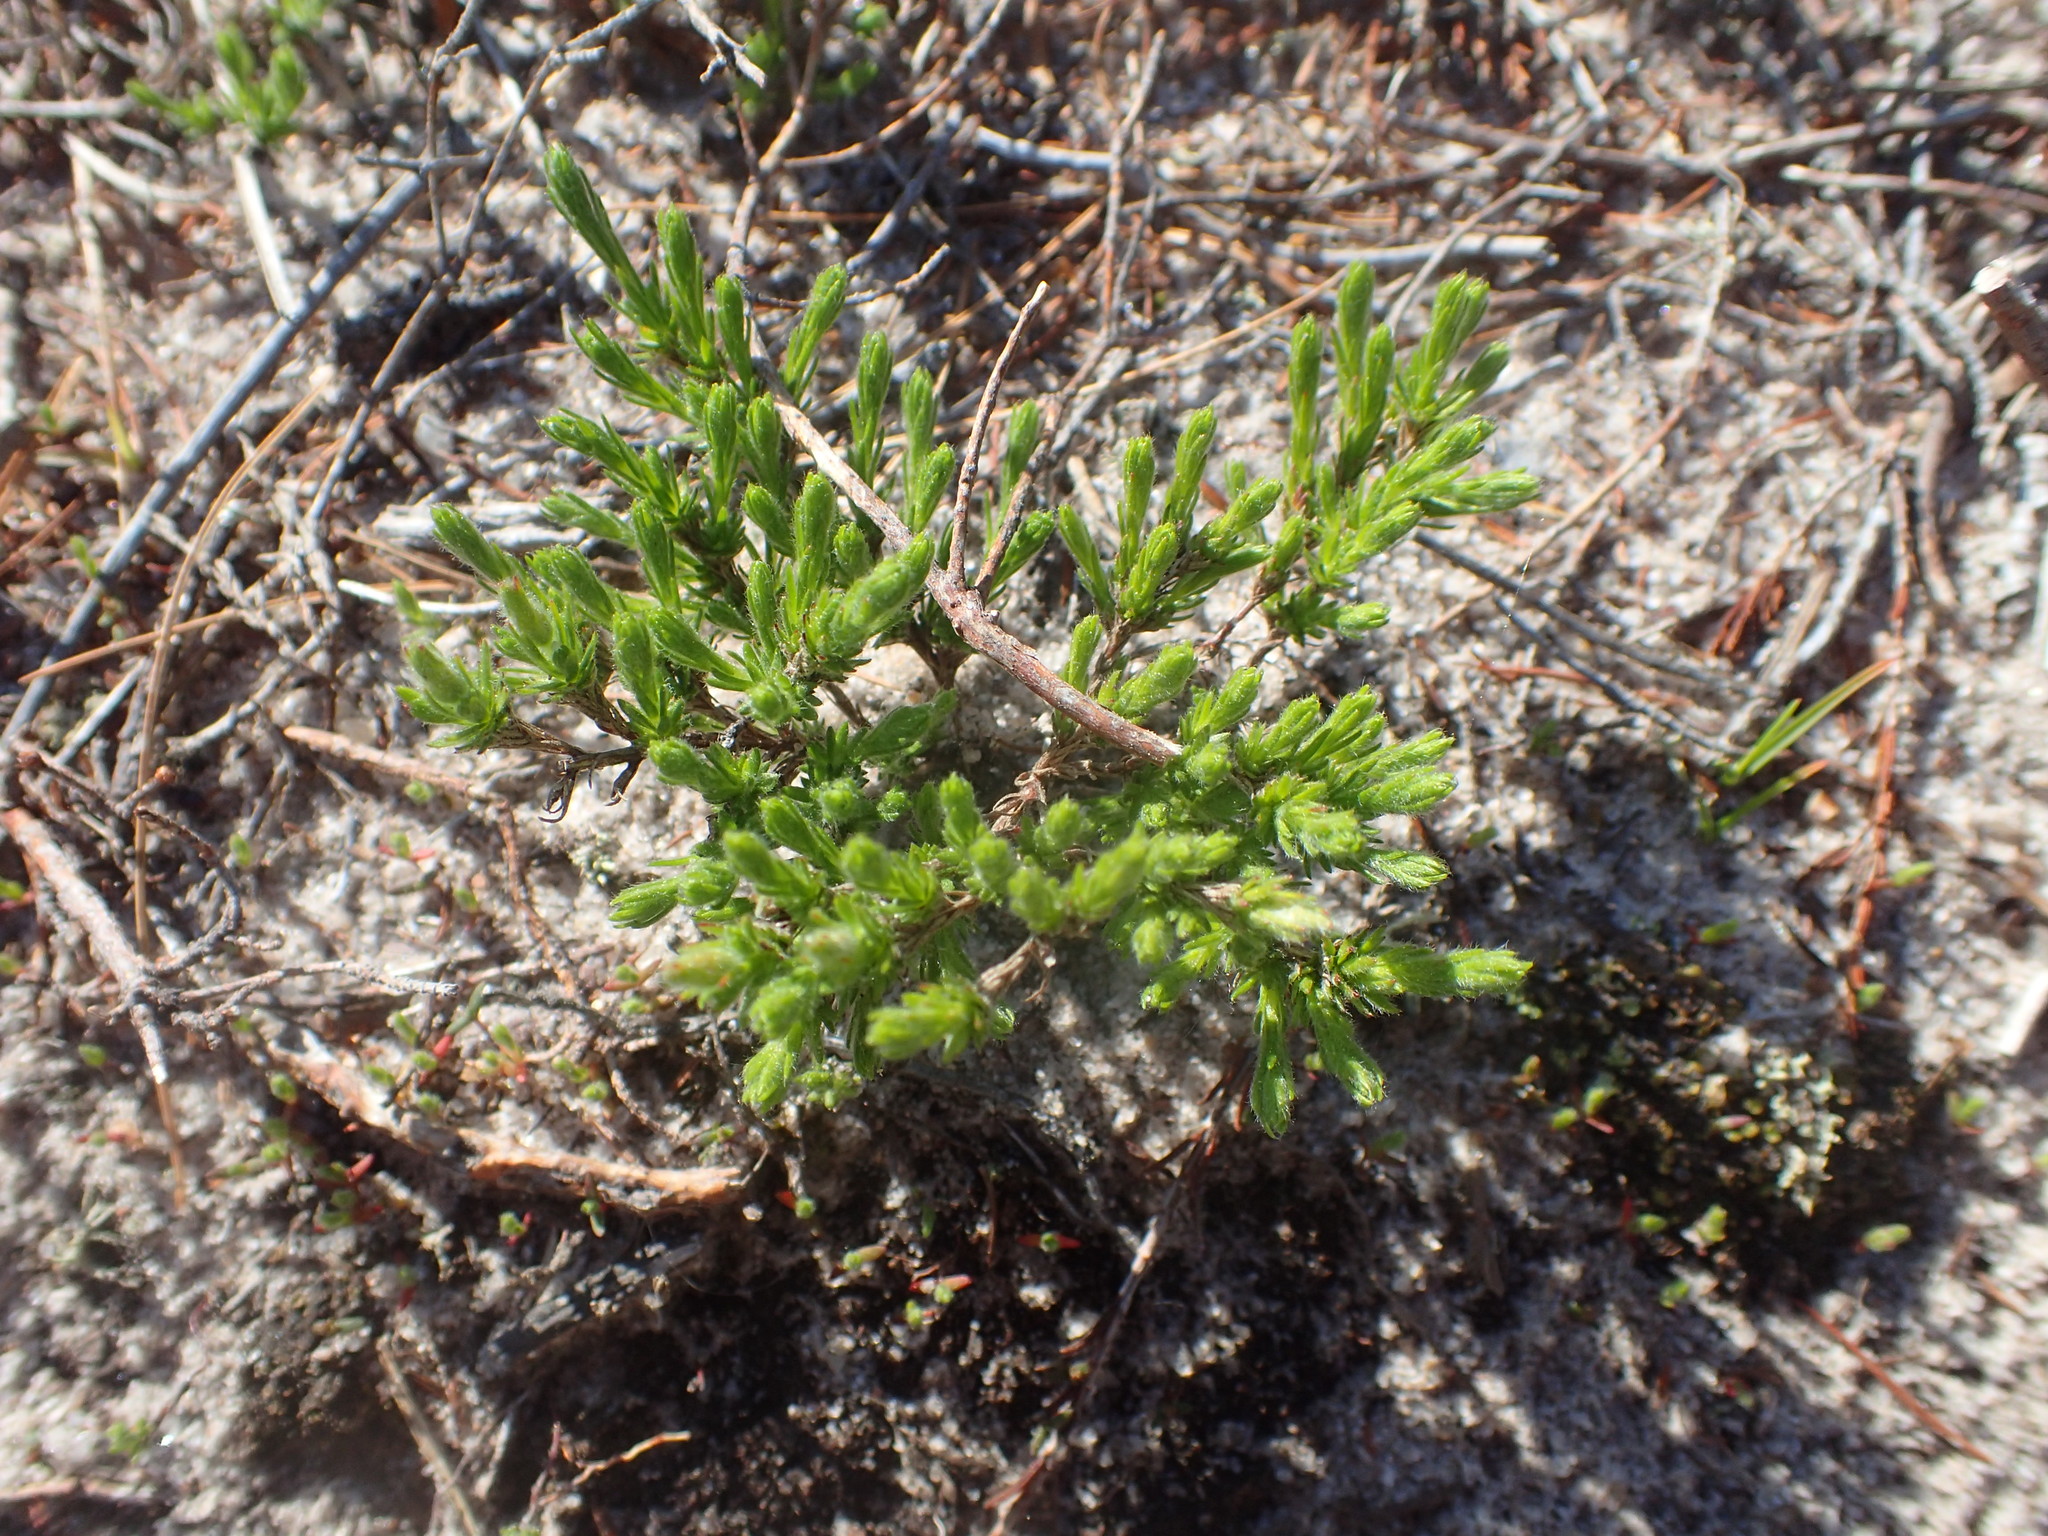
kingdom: Plantae
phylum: Tracheophyta
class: Magnoliopsida
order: Malvales
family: Cistaceae
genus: Hudsonia
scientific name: Hudsonia ericoides
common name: Golden-heather
